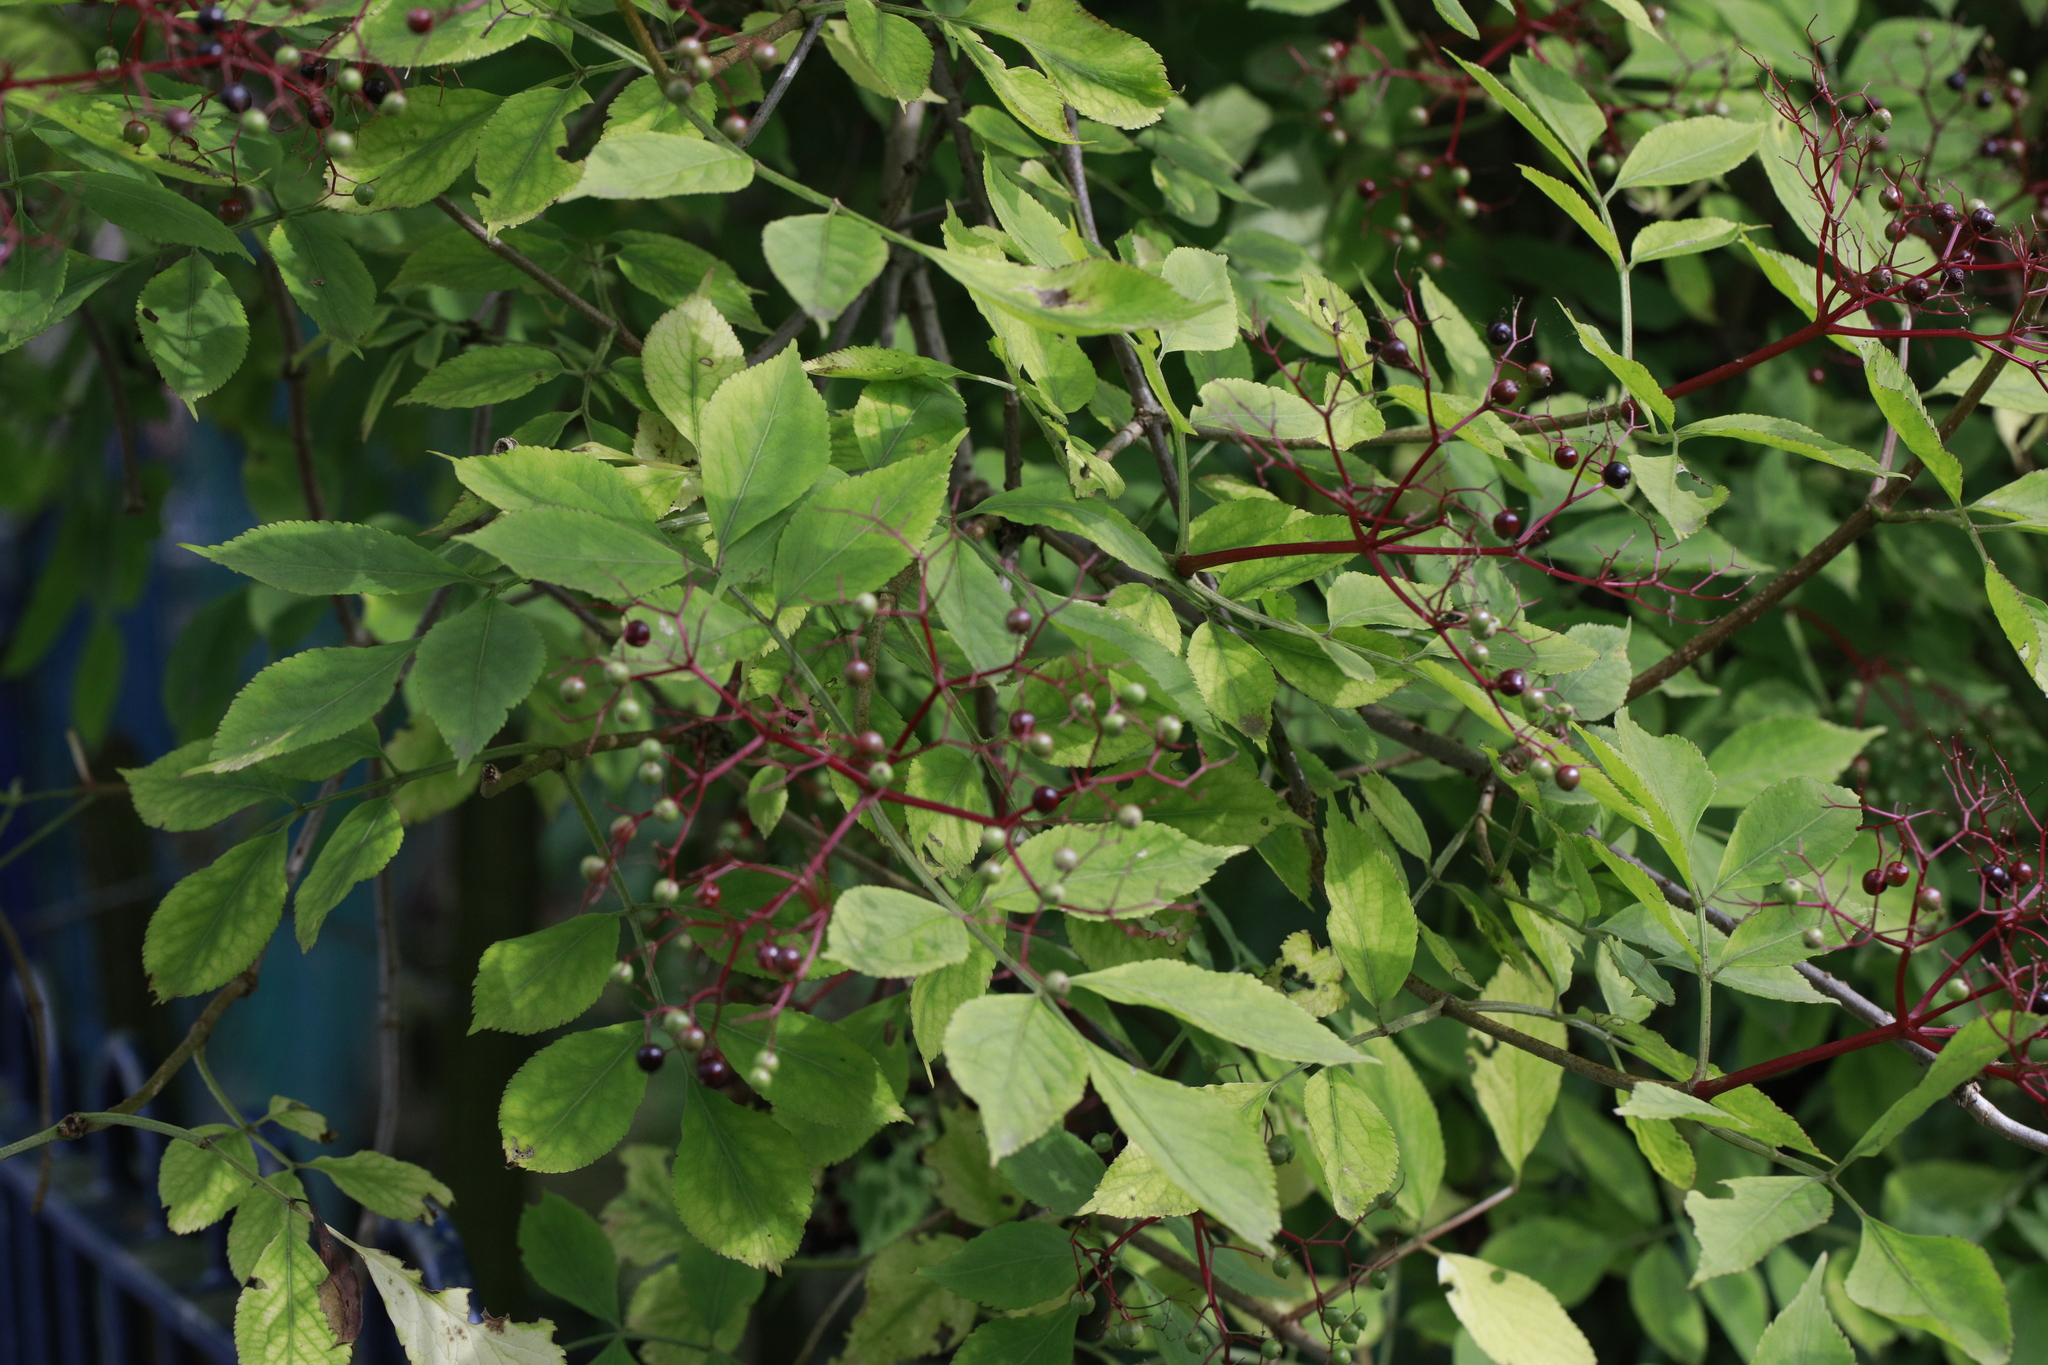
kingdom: Plantae
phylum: Tracheophyta
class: Magnoliopsida
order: Dipsacales
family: Viburnaceae
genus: Sambucus
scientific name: Sambucus nigra
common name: Elder
